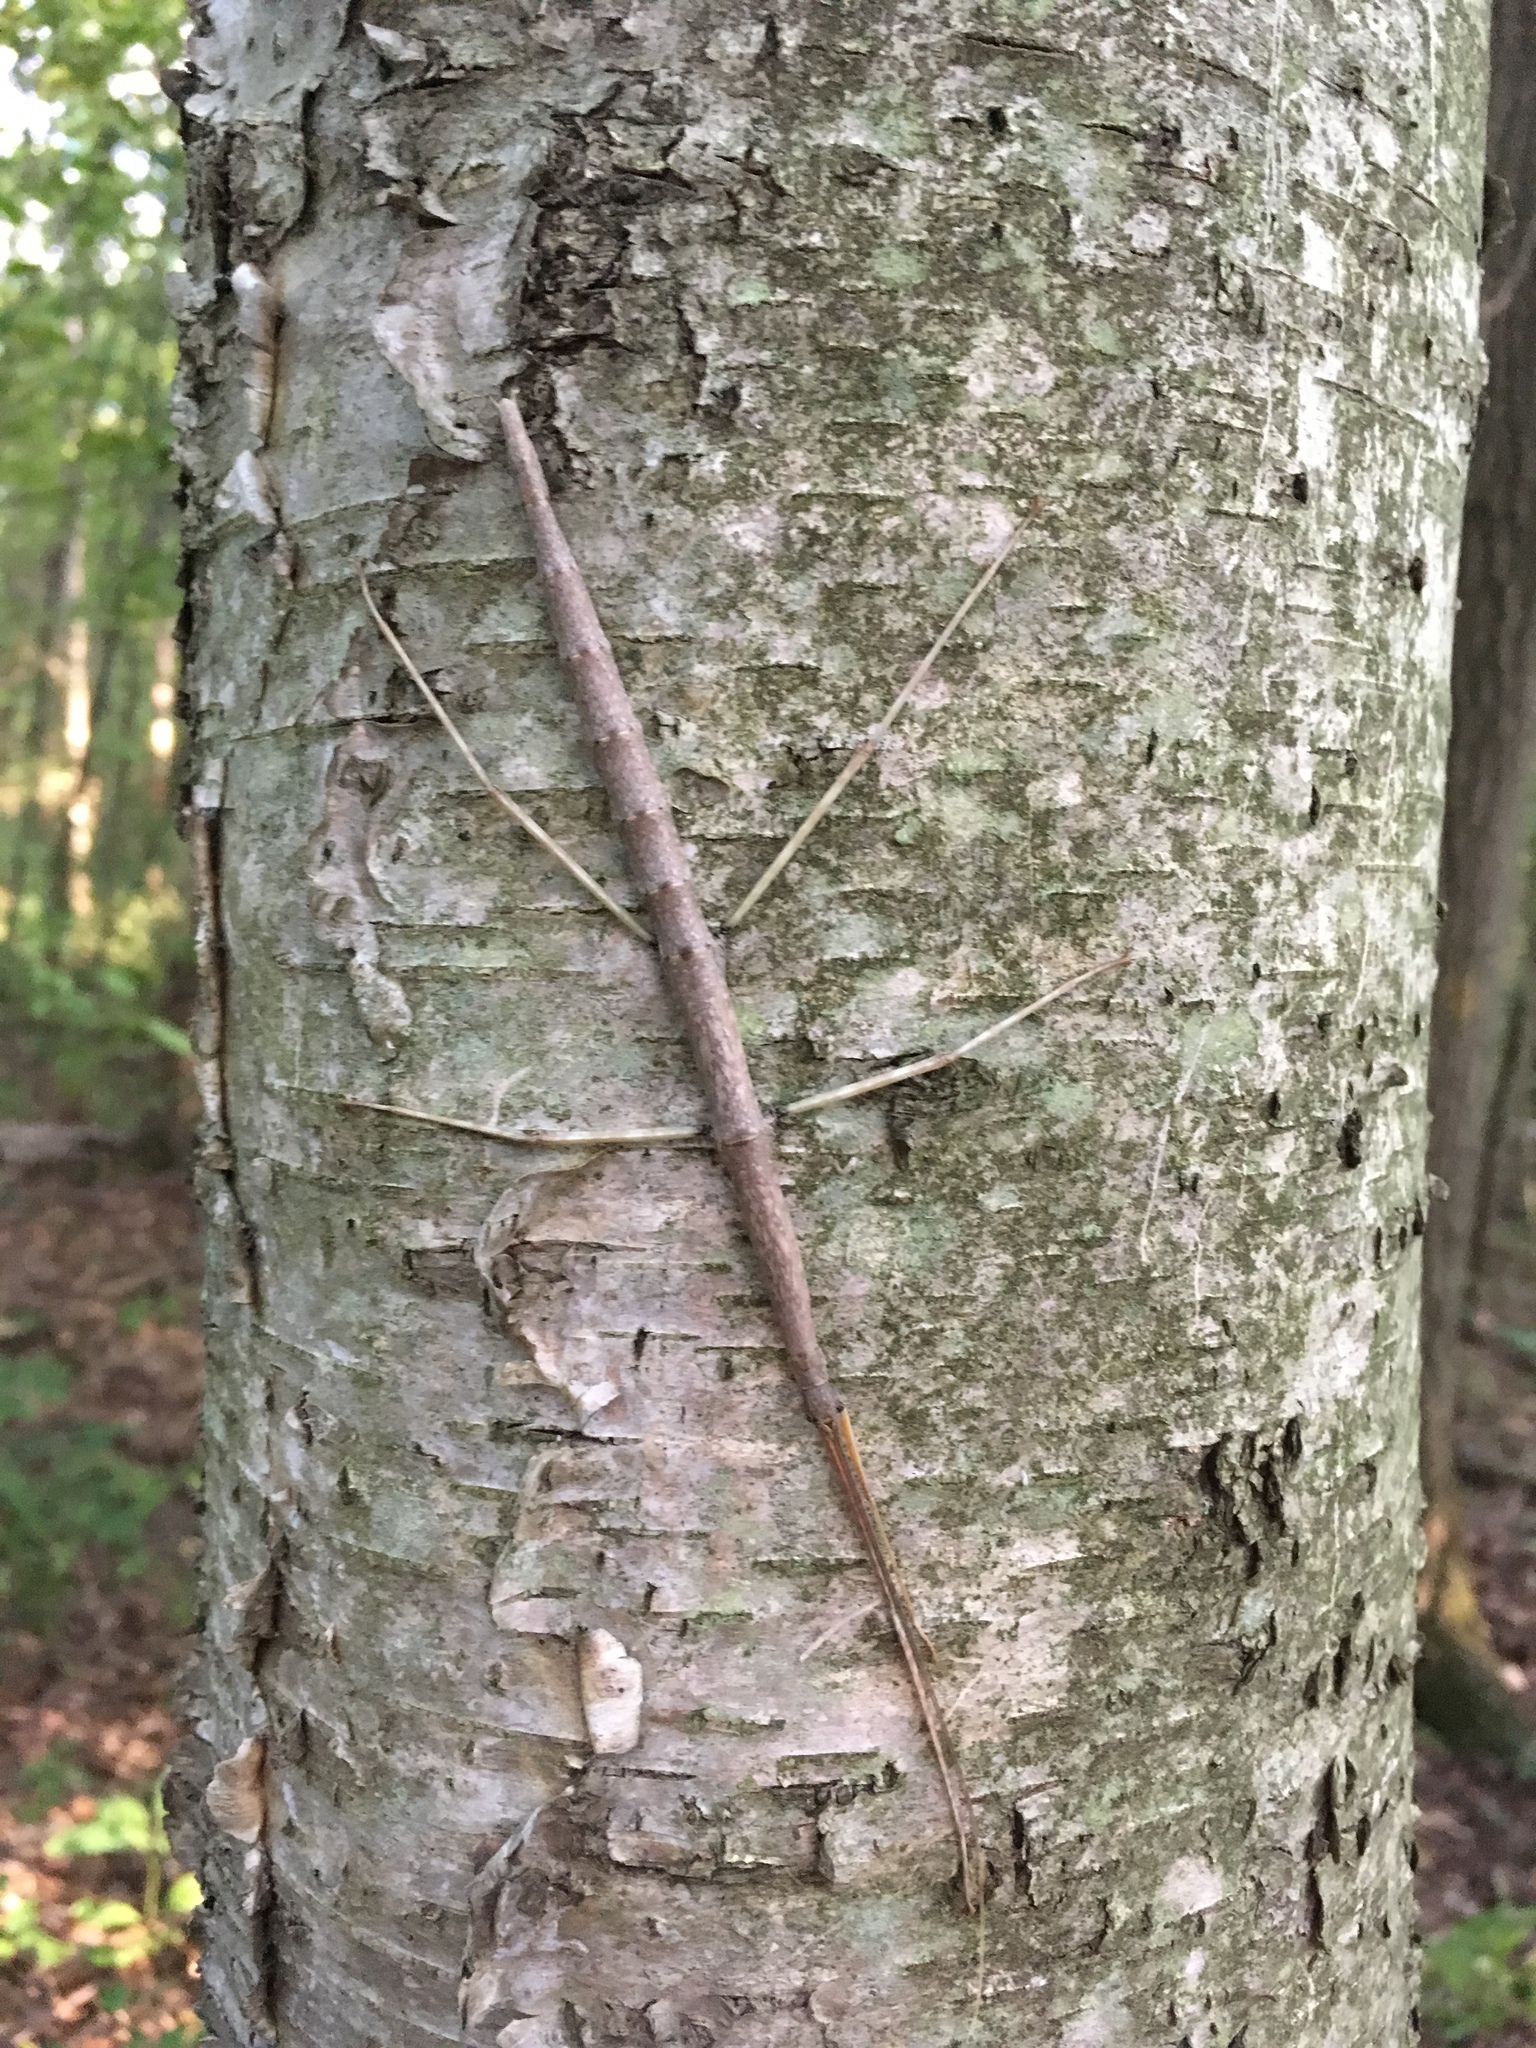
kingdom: Animalia
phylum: Arthropoda
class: Insecta
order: Phasmida
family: Diapheromeridae
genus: Diapheromera
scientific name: Diapheromera femorata
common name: Common american walkingstick
